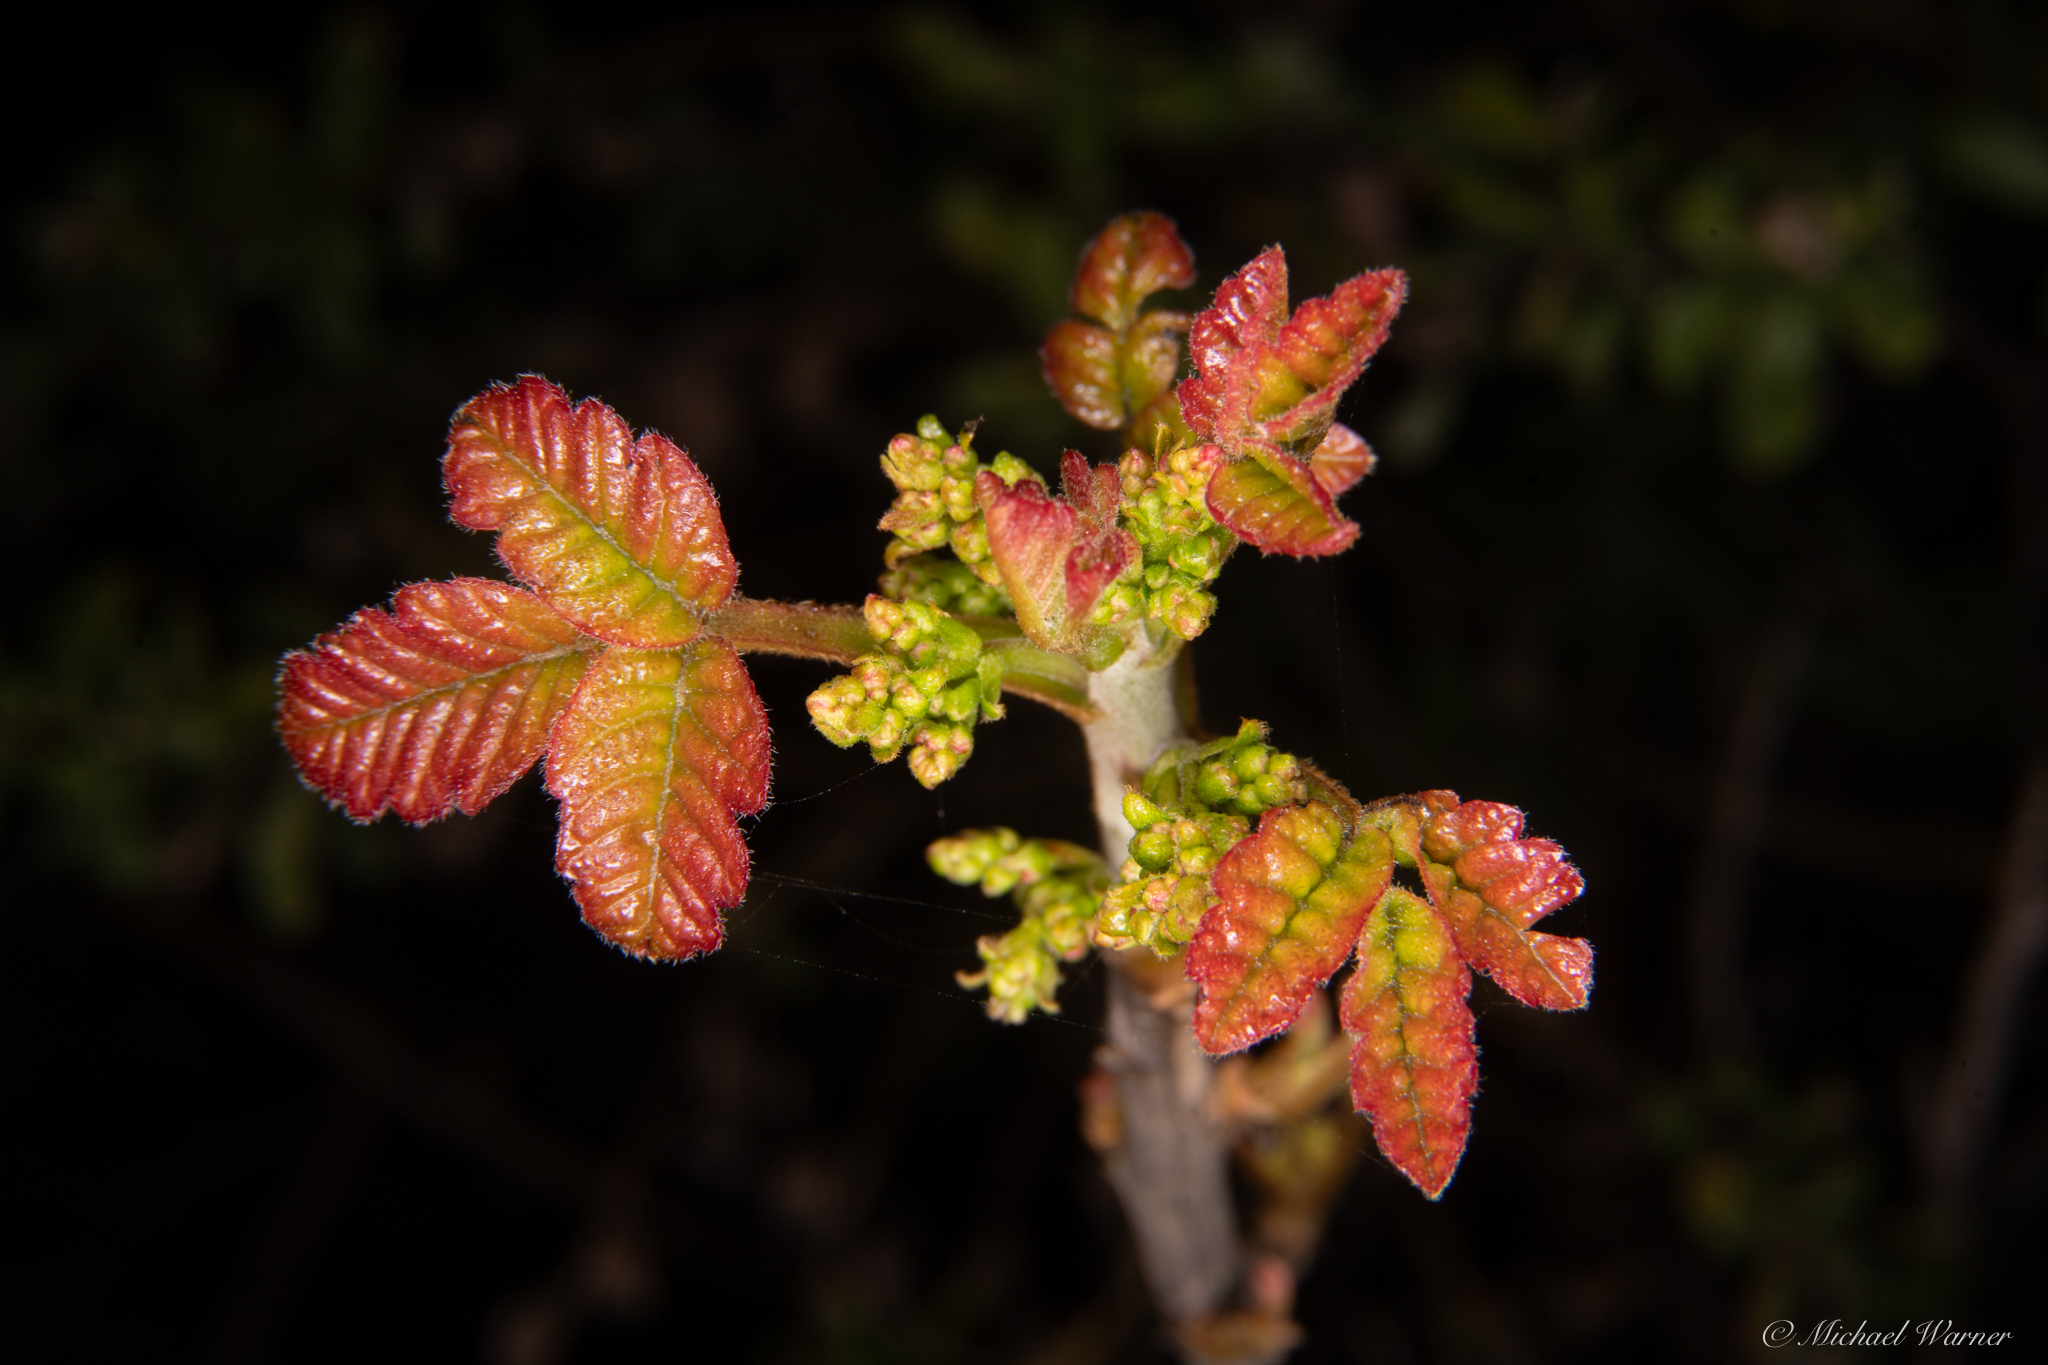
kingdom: Plantae
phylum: Tracheophyta
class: Magnoliopsida
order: Sapindales
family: Anacardiaceae
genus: Toxicodendron
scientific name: Toxicodendron diversilobum
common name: Pacific poison-oak
